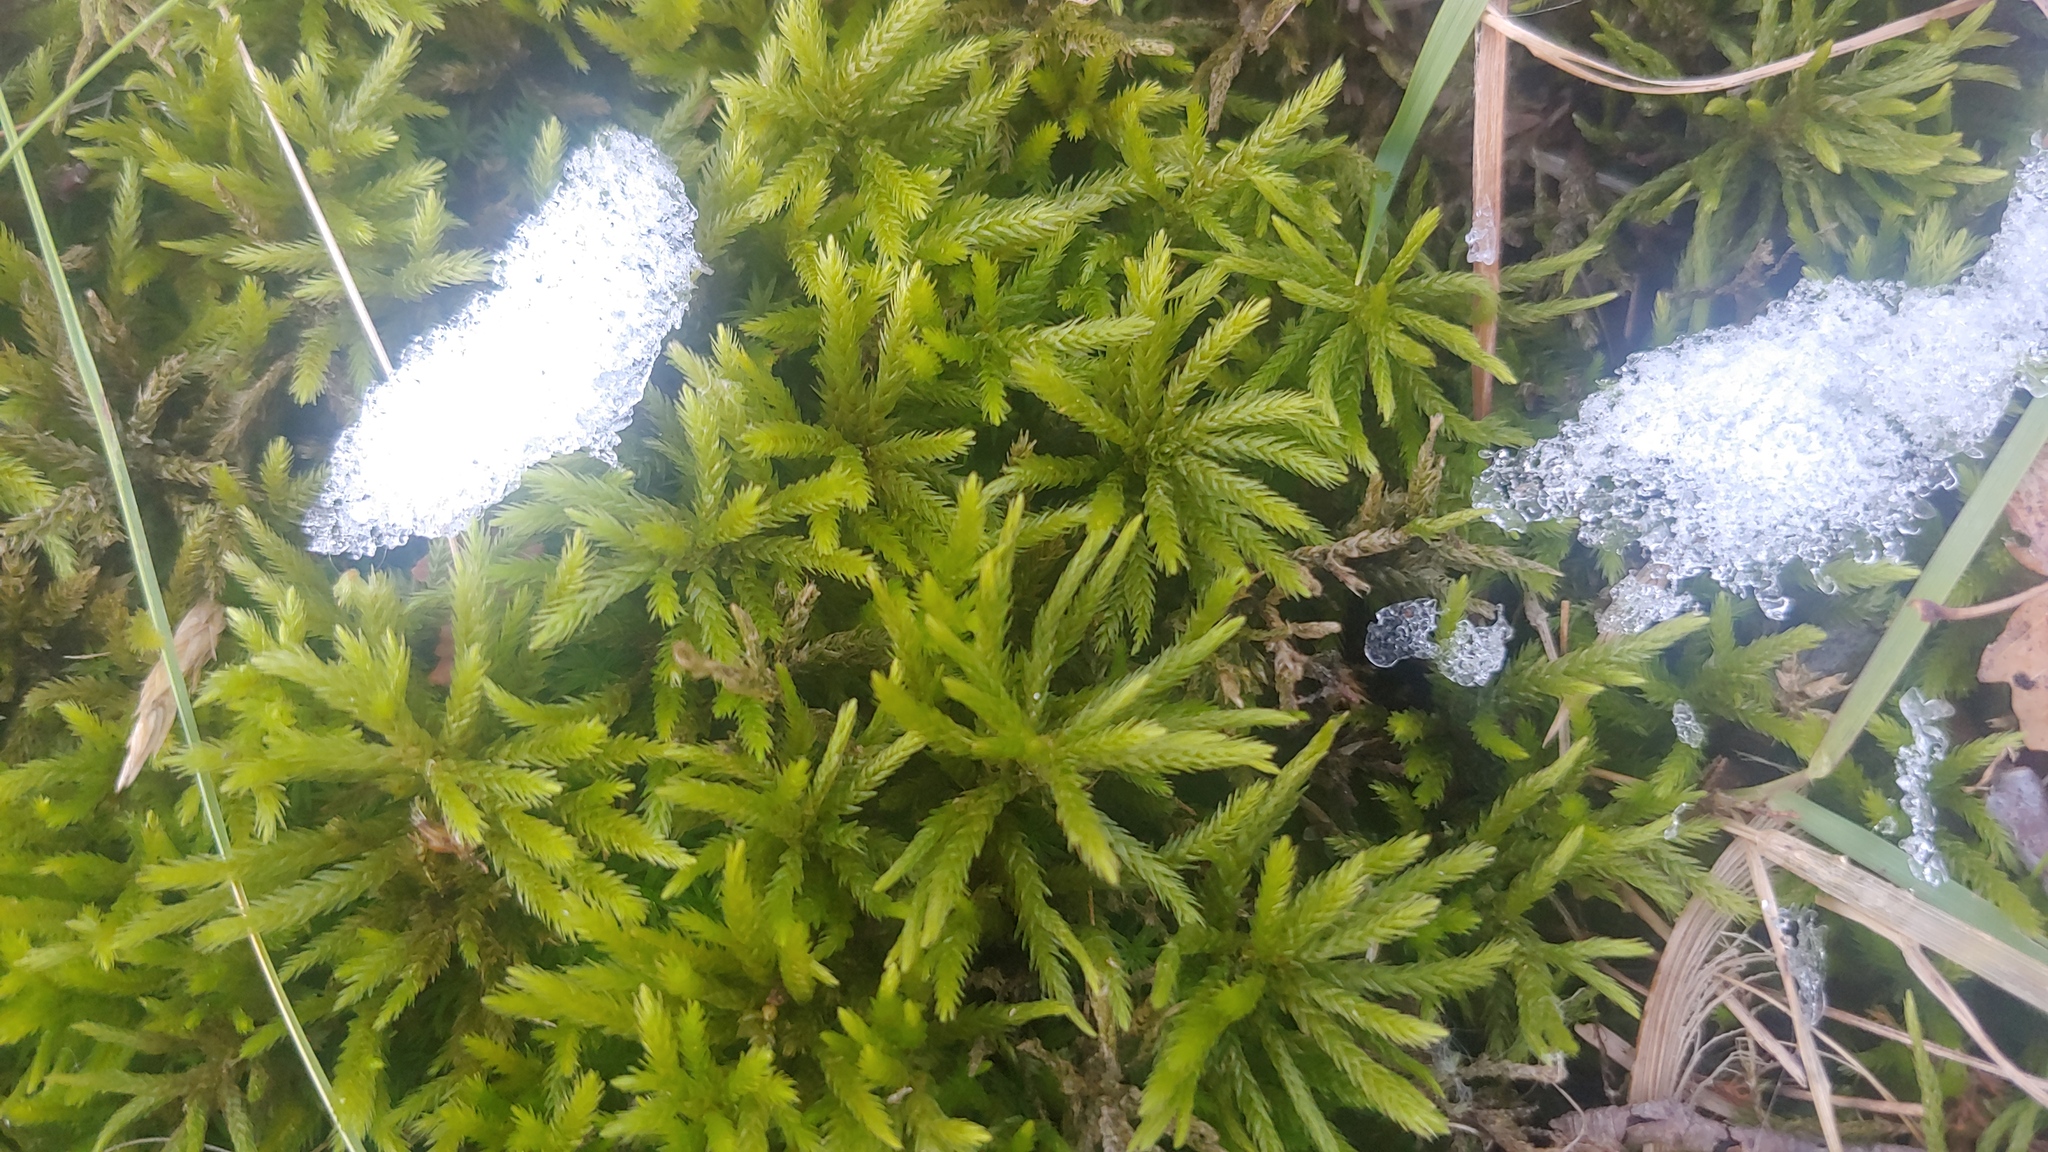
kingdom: Plantae
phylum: Bryophyta
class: Bryopsida
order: Hypnales
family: Climaciaceae
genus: Climacium
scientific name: Climacium americanum
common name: American tree moss
